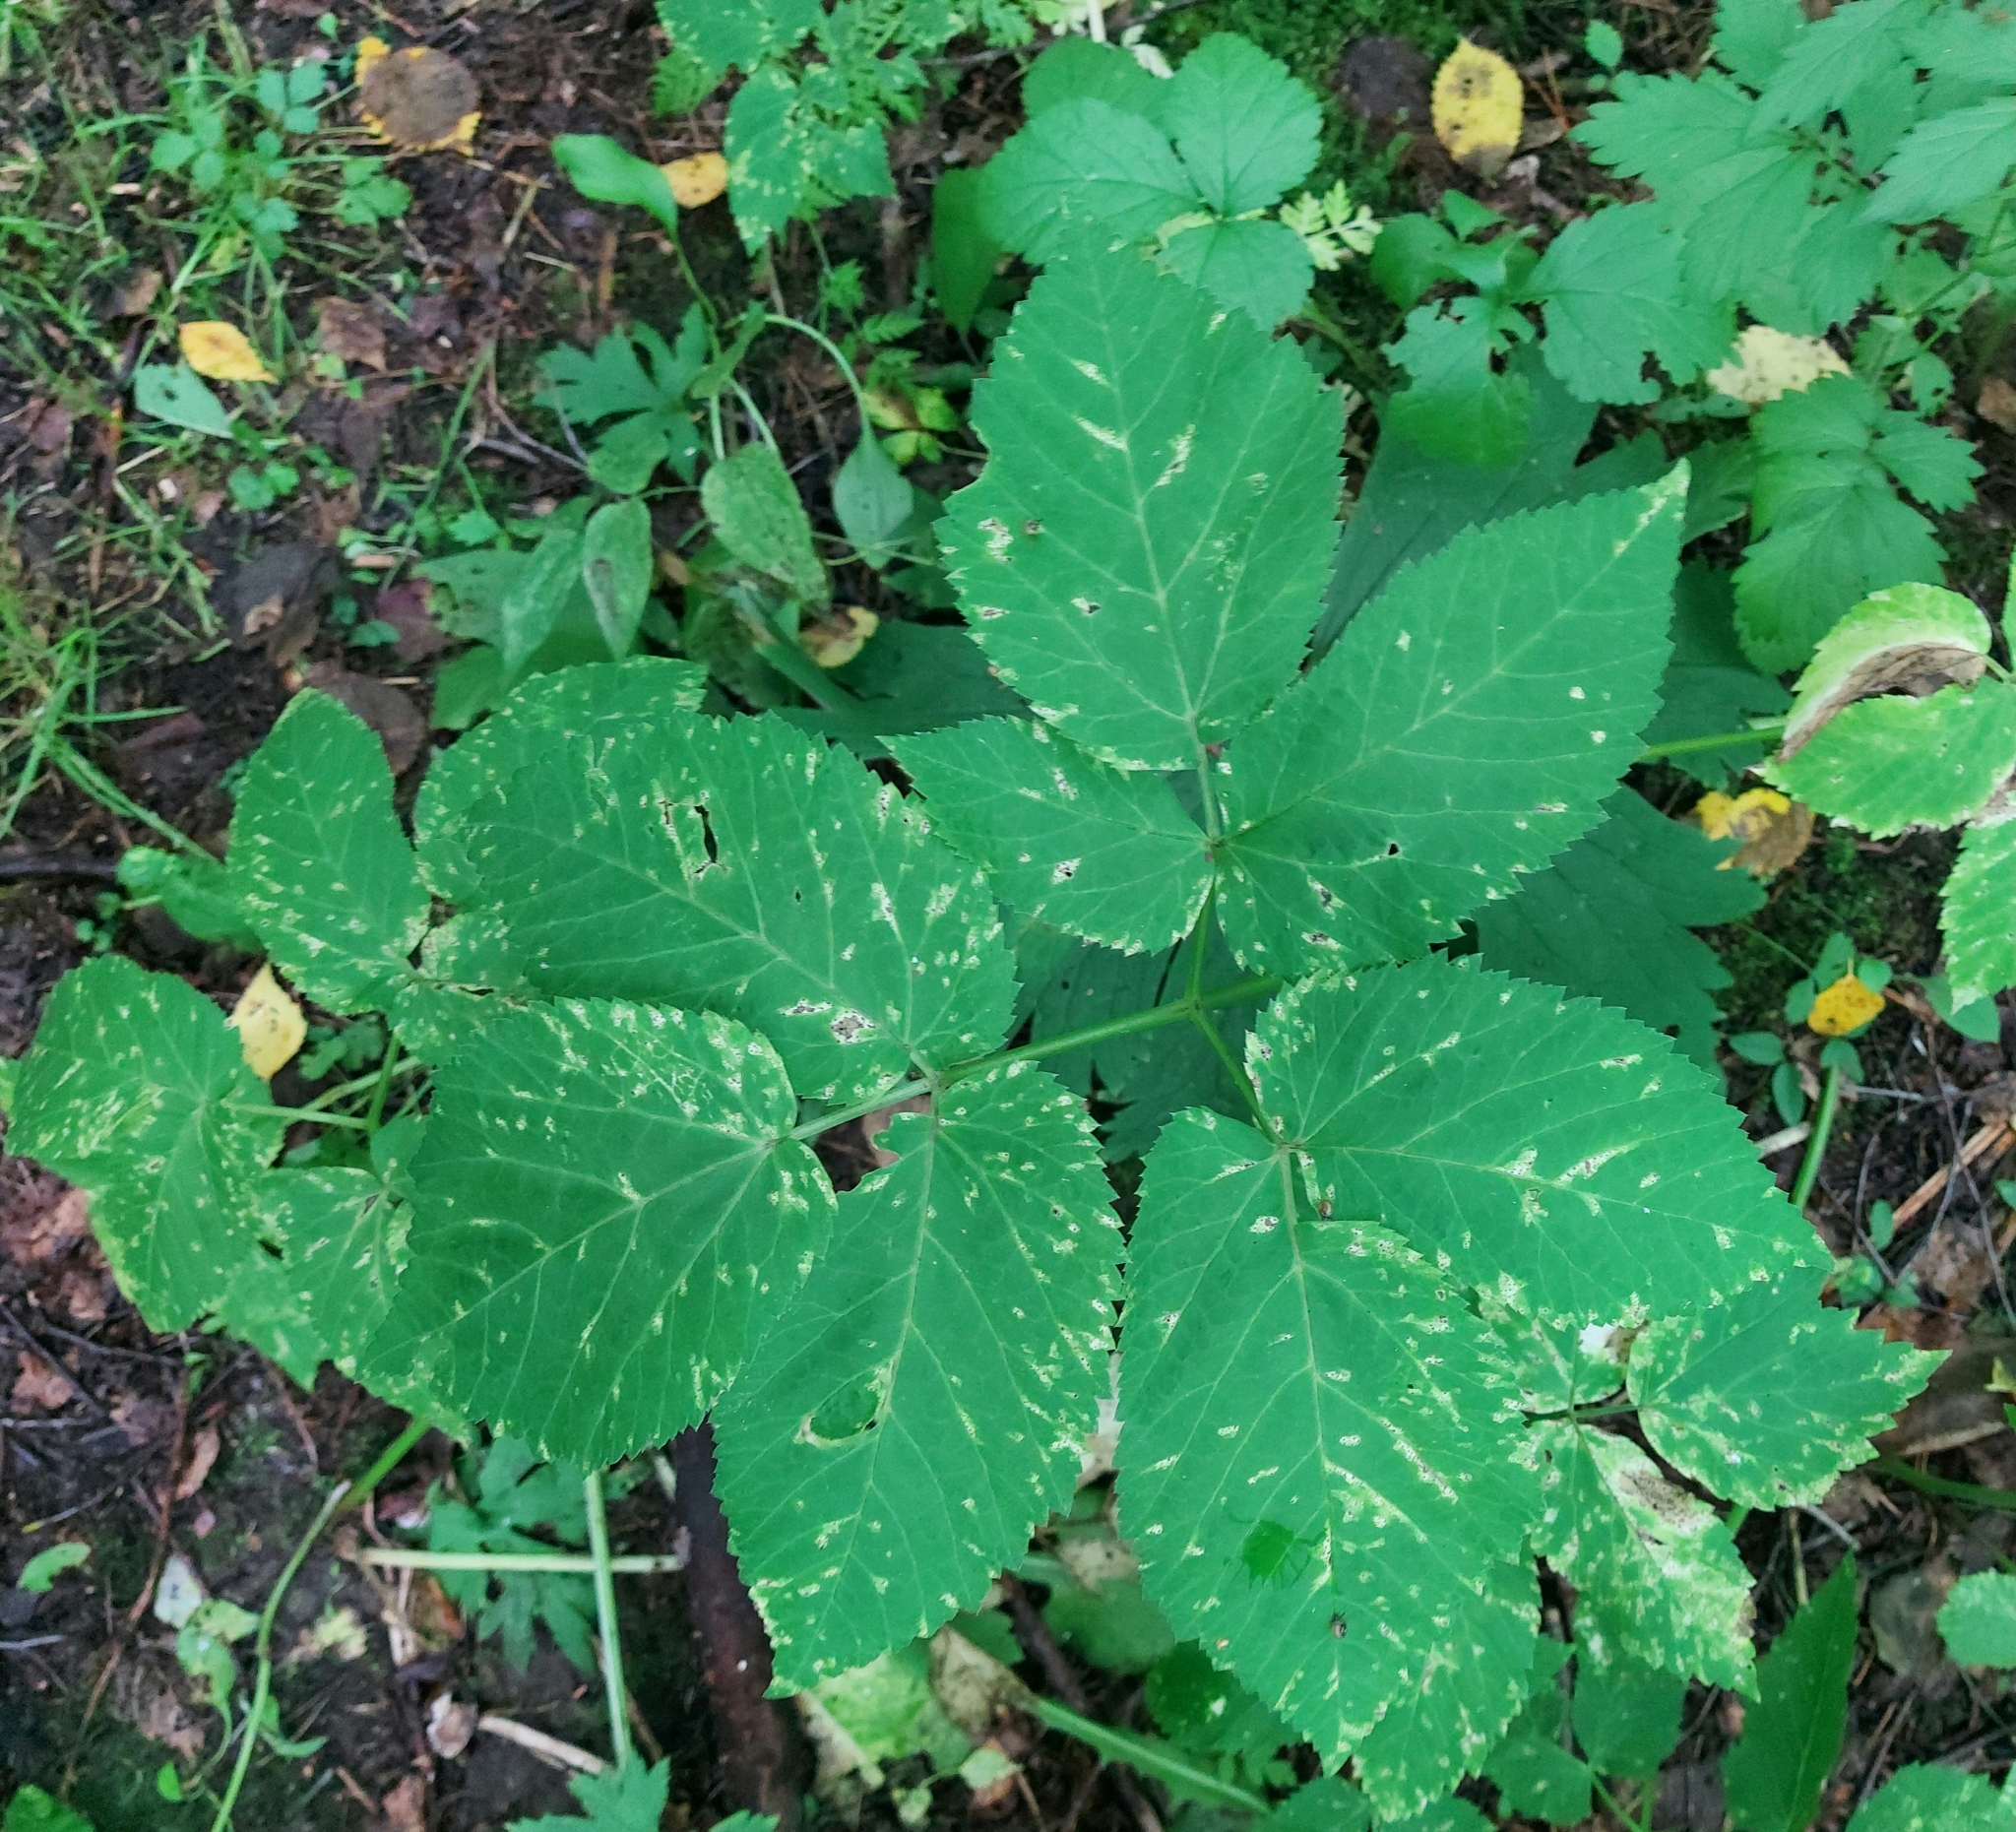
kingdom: Plantae
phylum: Tracheophyta
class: Magnoliopsida
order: Apiales
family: Apiaceae
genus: Aegopodium
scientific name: Aegopodium podagraria
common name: Ground-elder
